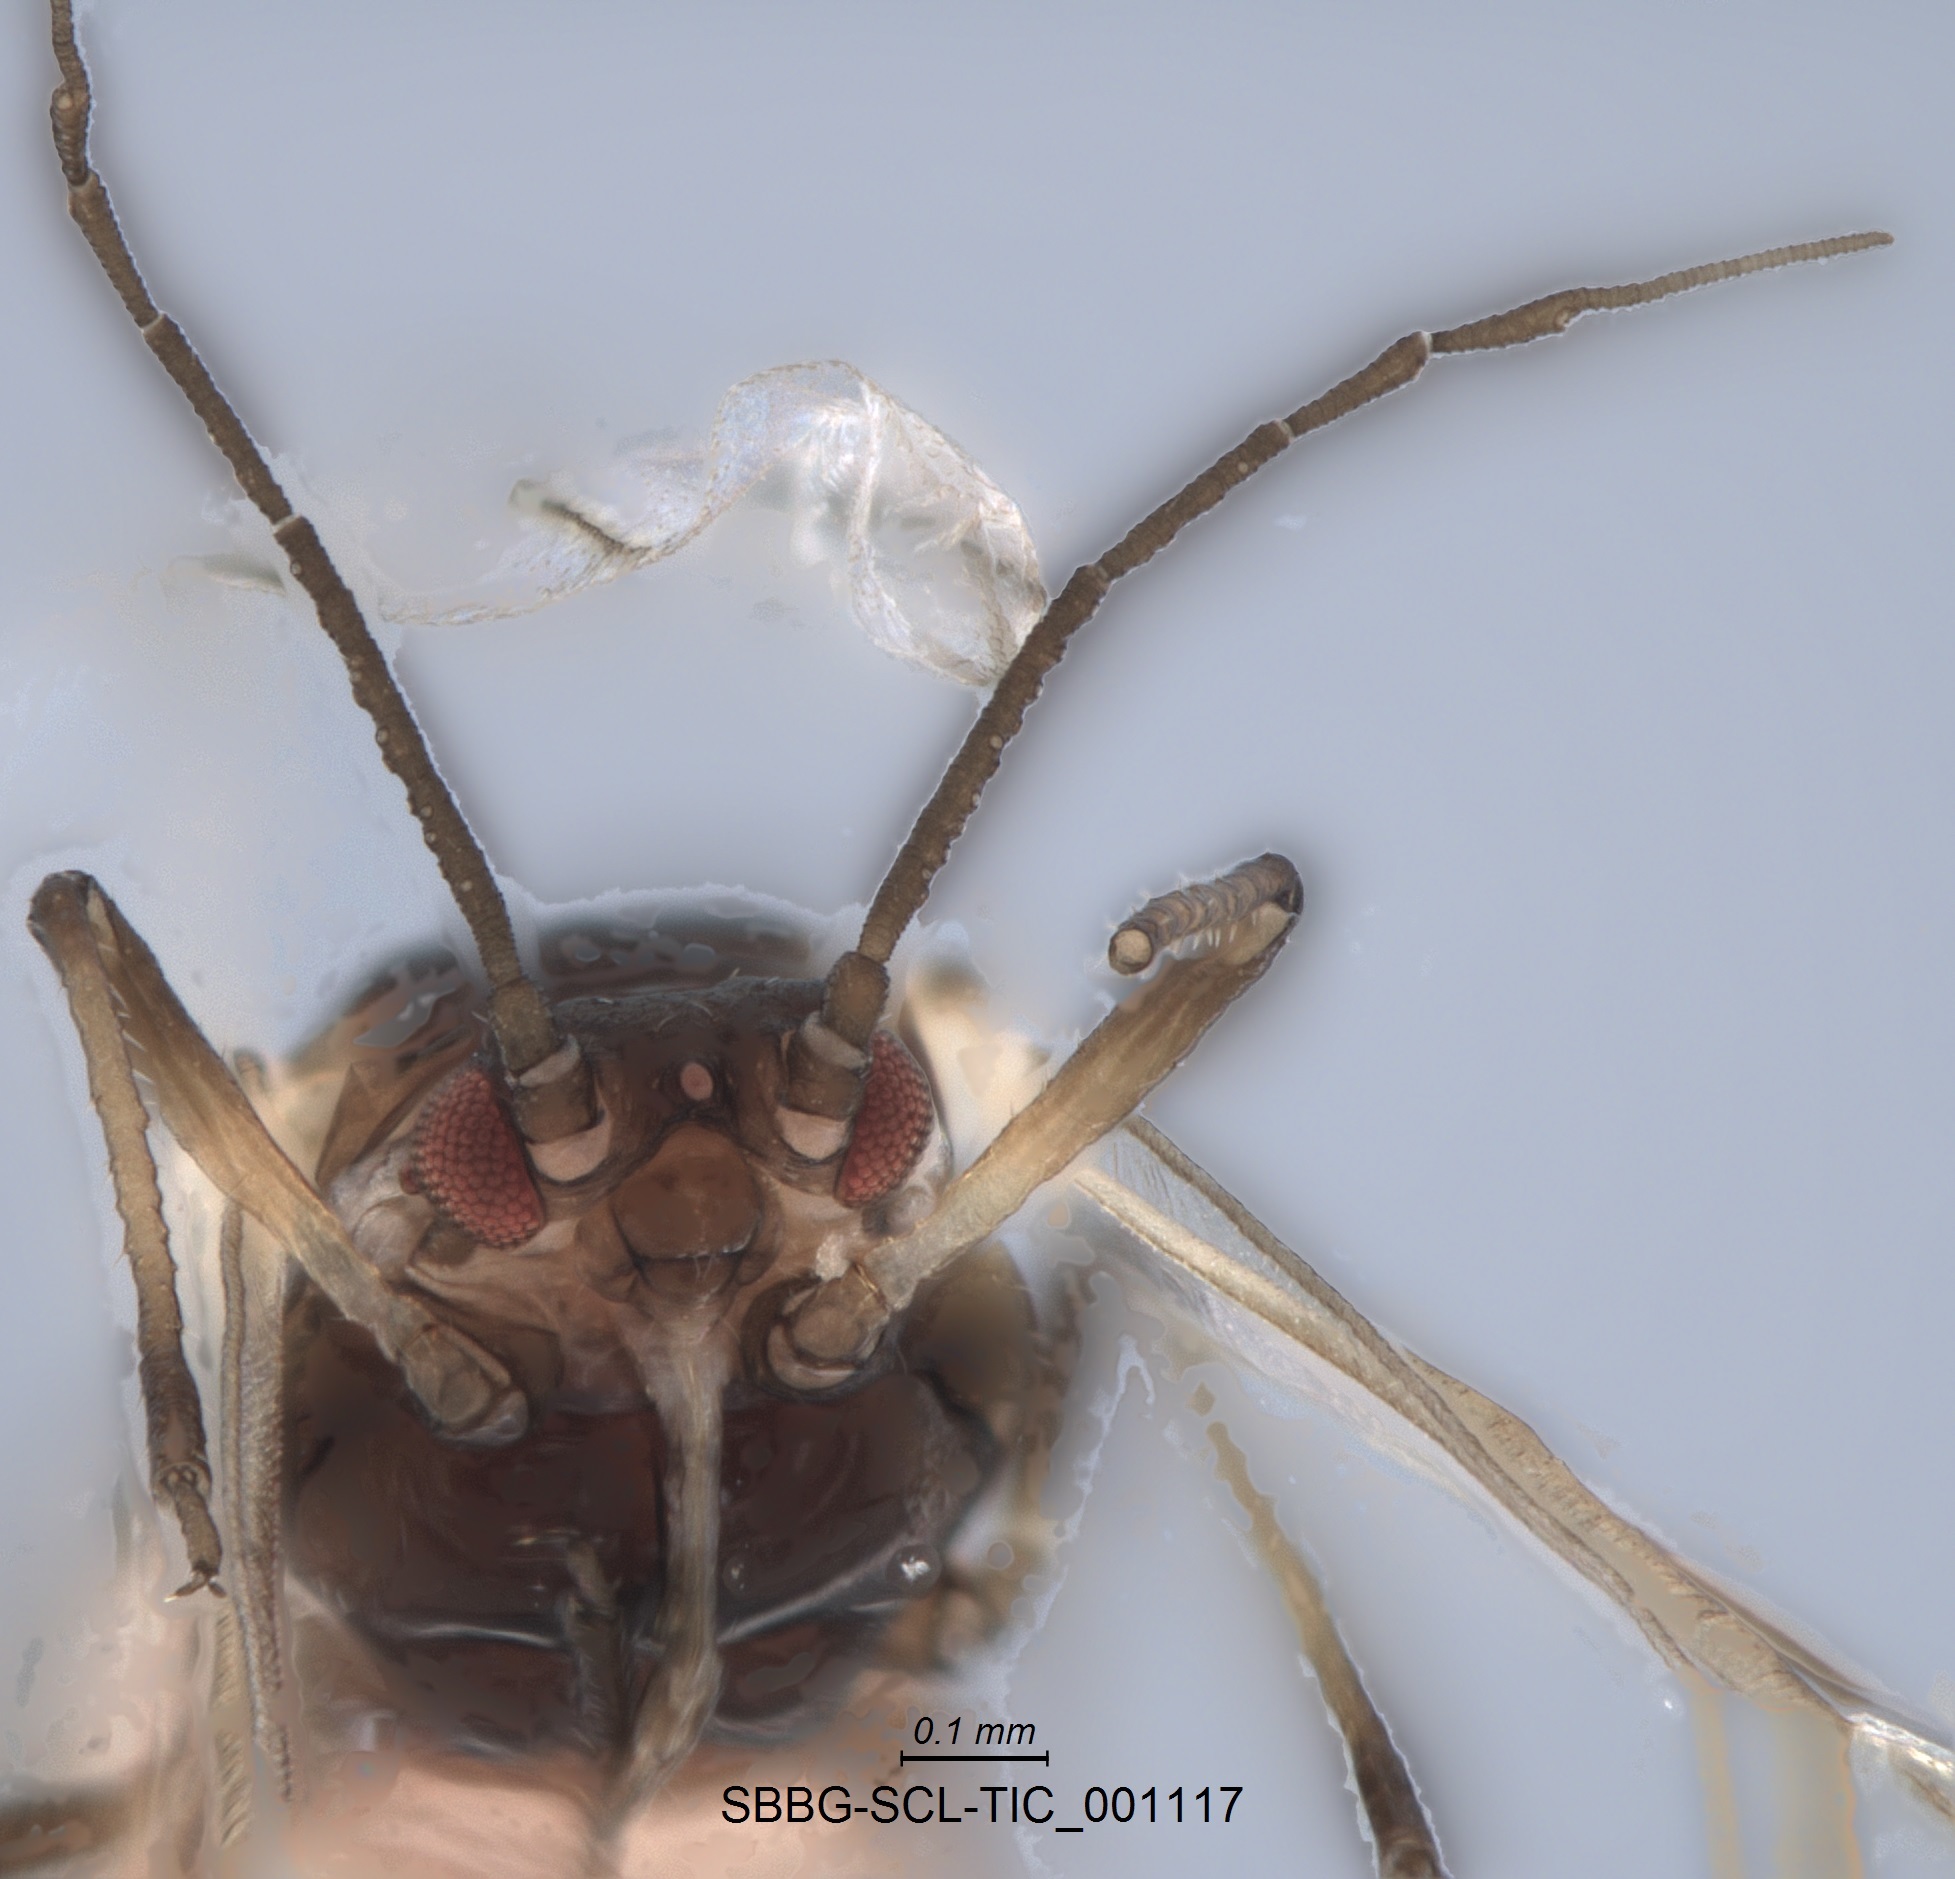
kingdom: Animalia
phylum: Arthropoda
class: Insecta
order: Hemiptera
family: Aphididae
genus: Hyalopterus
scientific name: Hyalopterus pruni
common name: Mealy plum aphid
